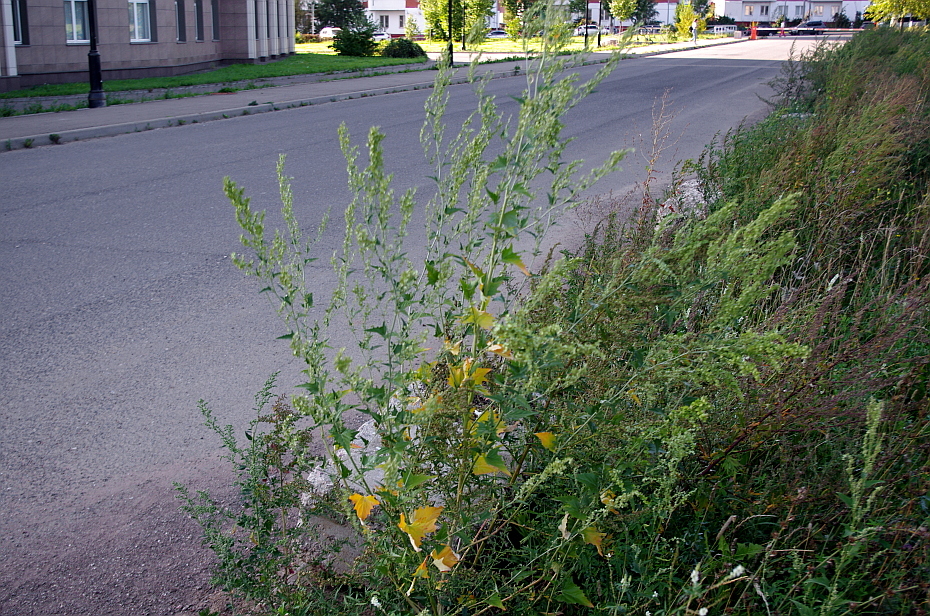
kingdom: Plantae
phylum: Tracheophyta
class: Magnoliopsida
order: Caryophyllales
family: Amaranthaceae
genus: Atriplex
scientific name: Atriplex sagittata
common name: Purple orache
